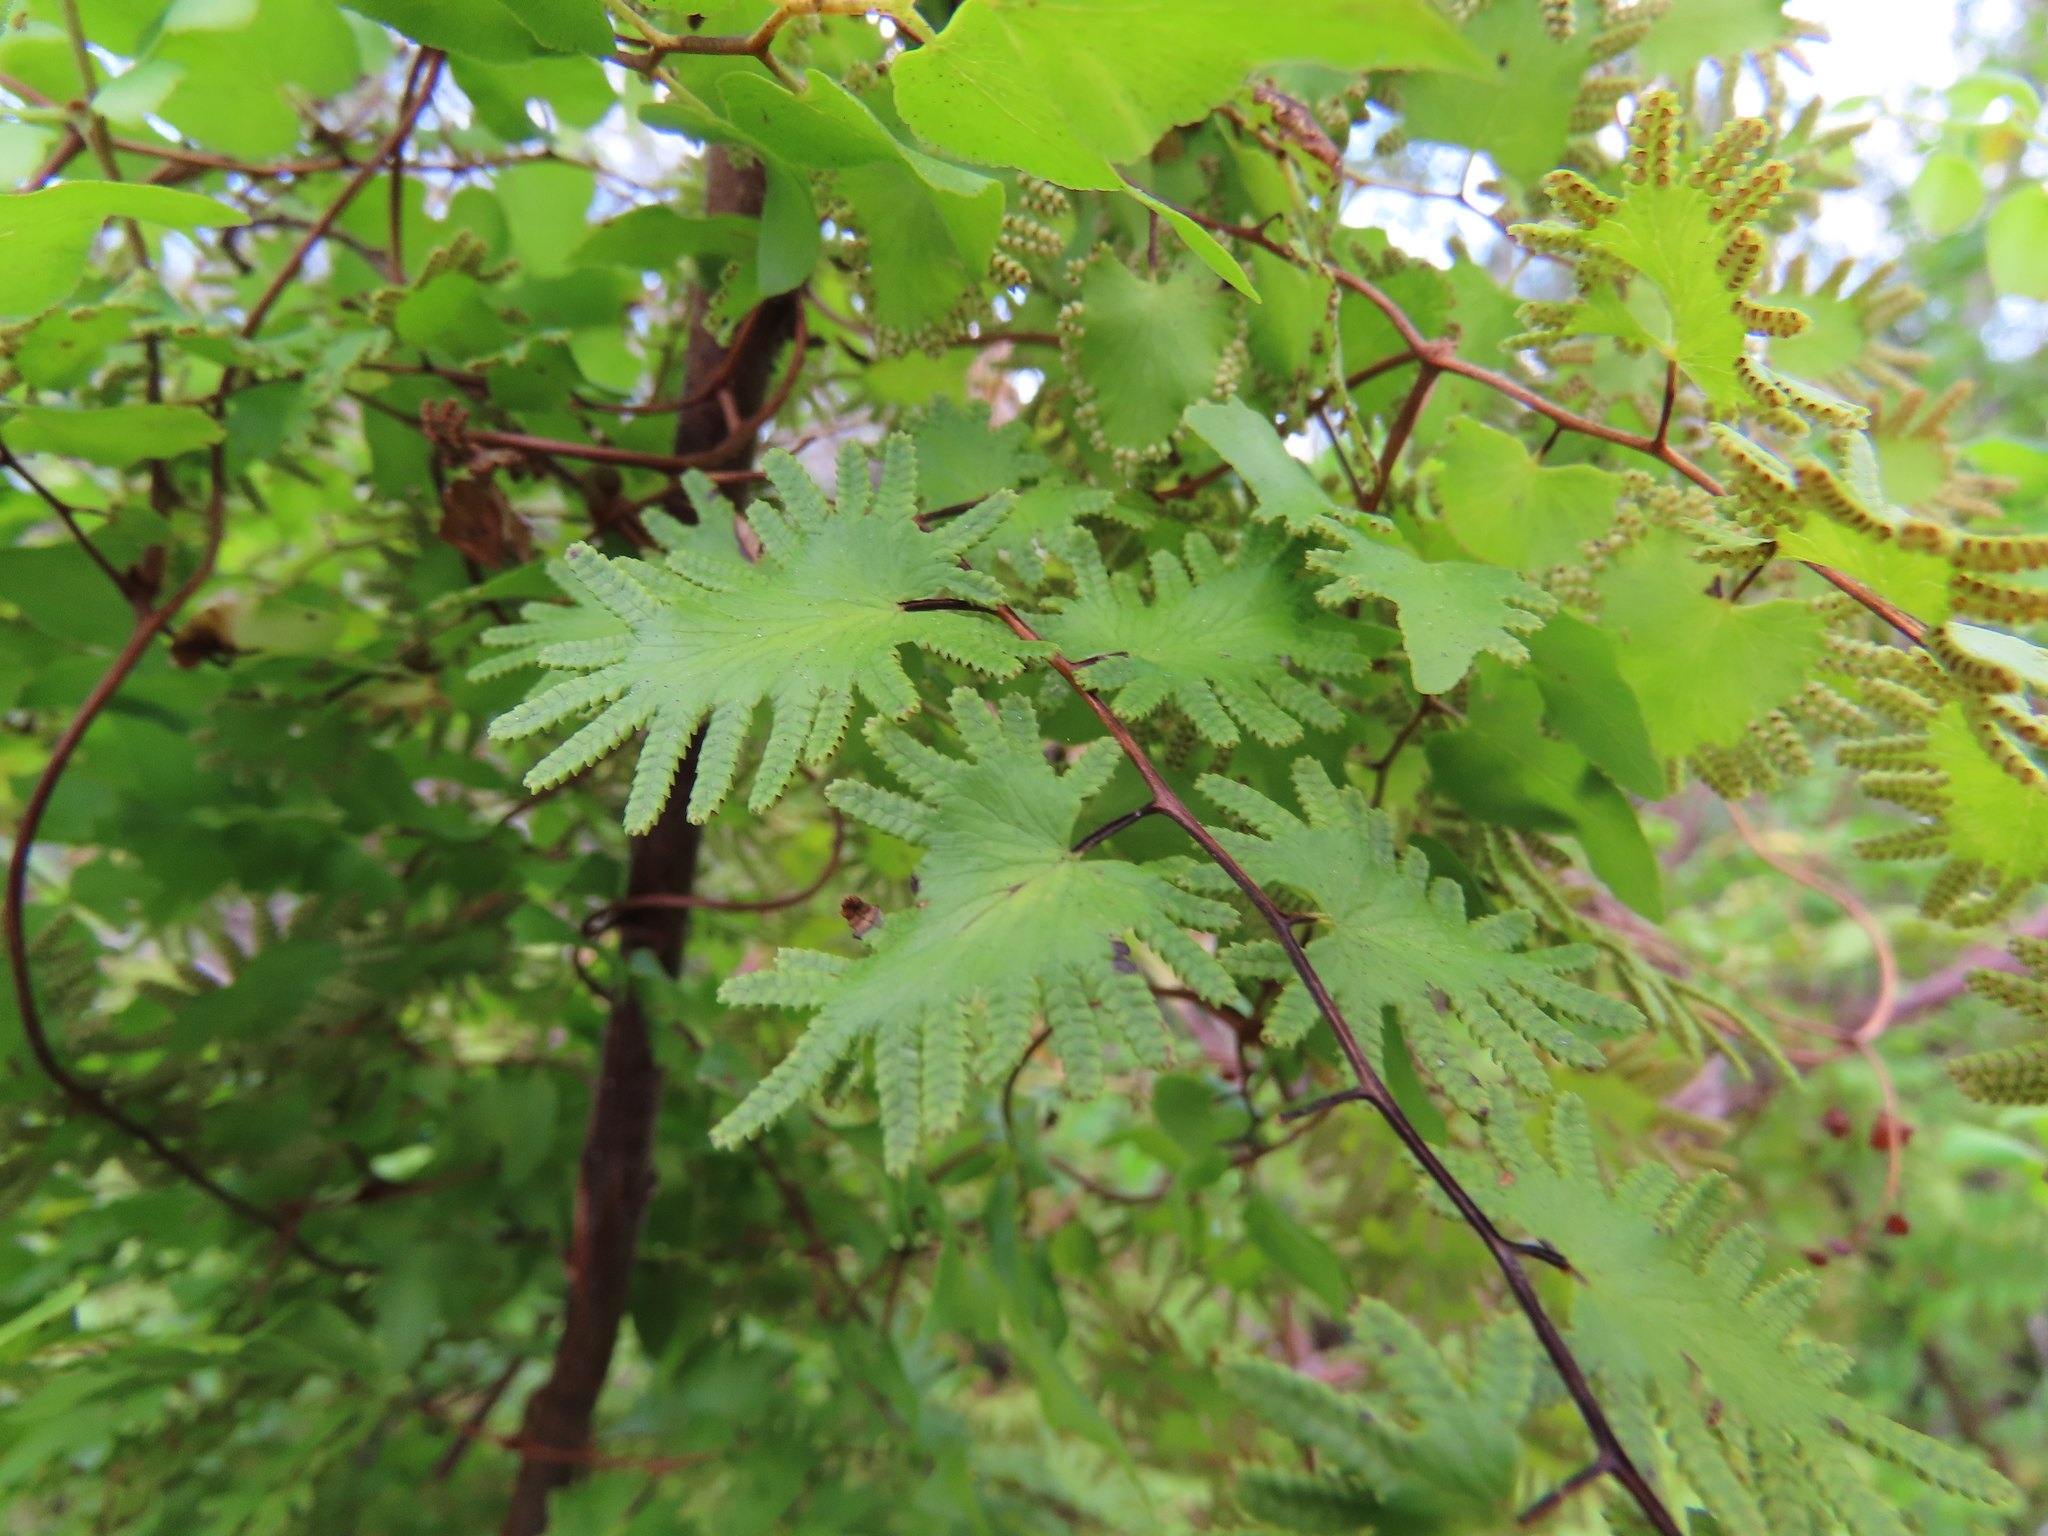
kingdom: Plantae
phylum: Tracheophyta
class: Polypodiopsida
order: Schizaeales
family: Lygodiaceae
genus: Lygodium
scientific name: Lygodium microphyllum
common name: Small-leaf climbing fern
